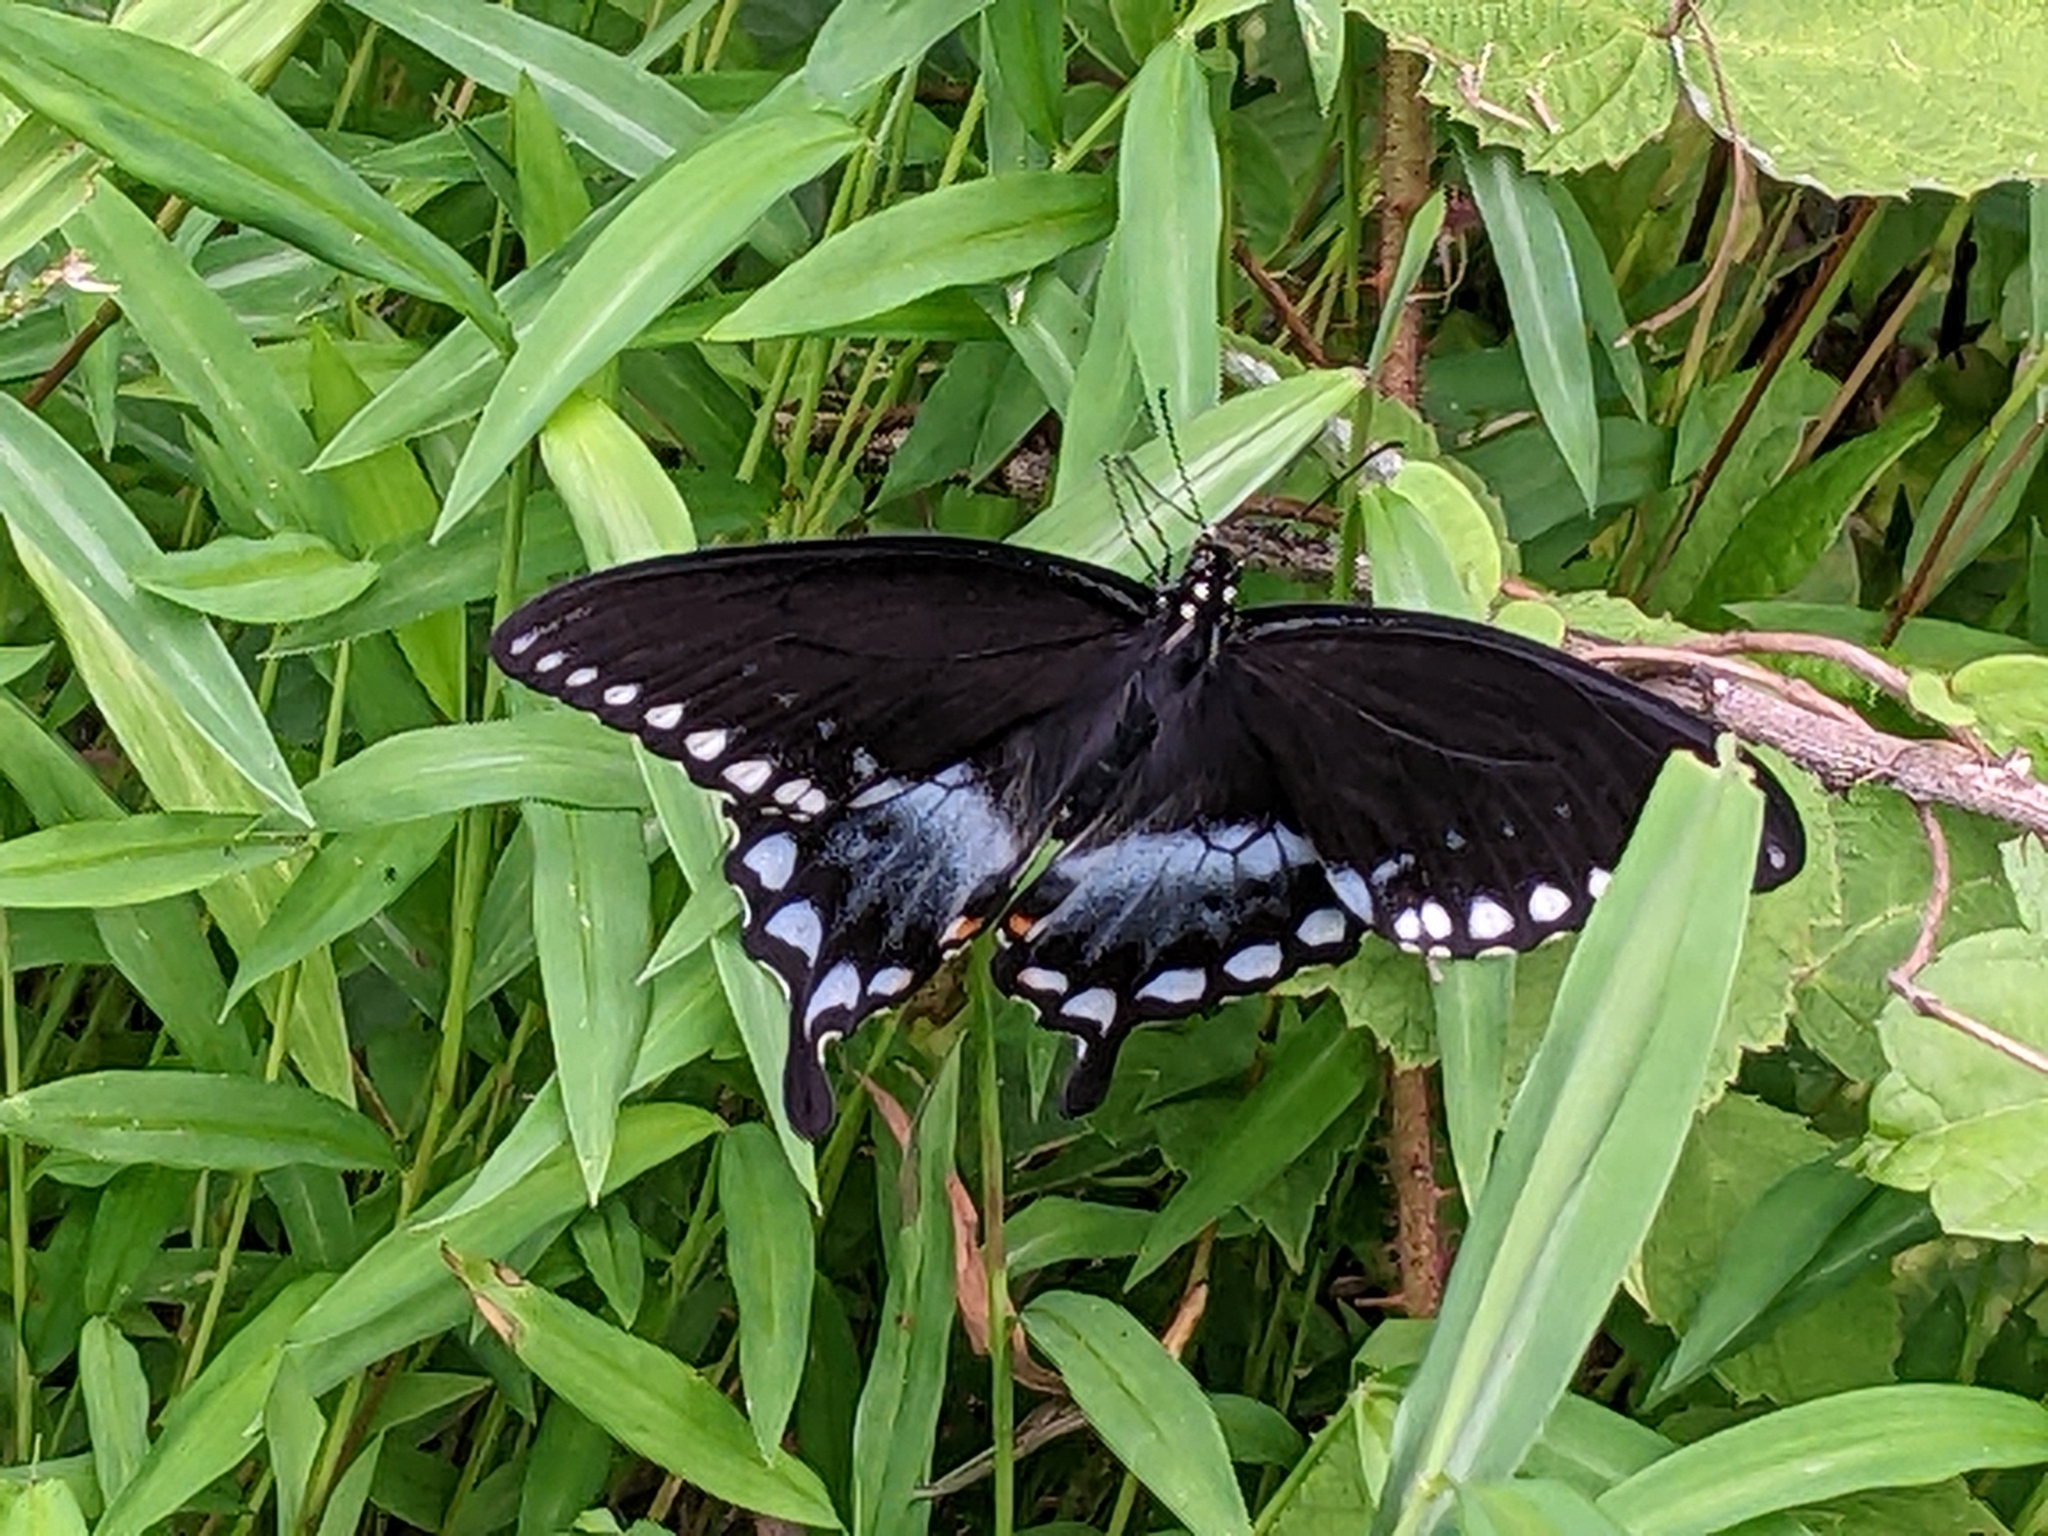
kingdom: Animalia
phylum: Arthropoda
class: Insecta
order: Lepidoptera
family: Papilionidae
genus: Papilio
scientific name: Papilio troilus
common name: Spicebush swallowtail
